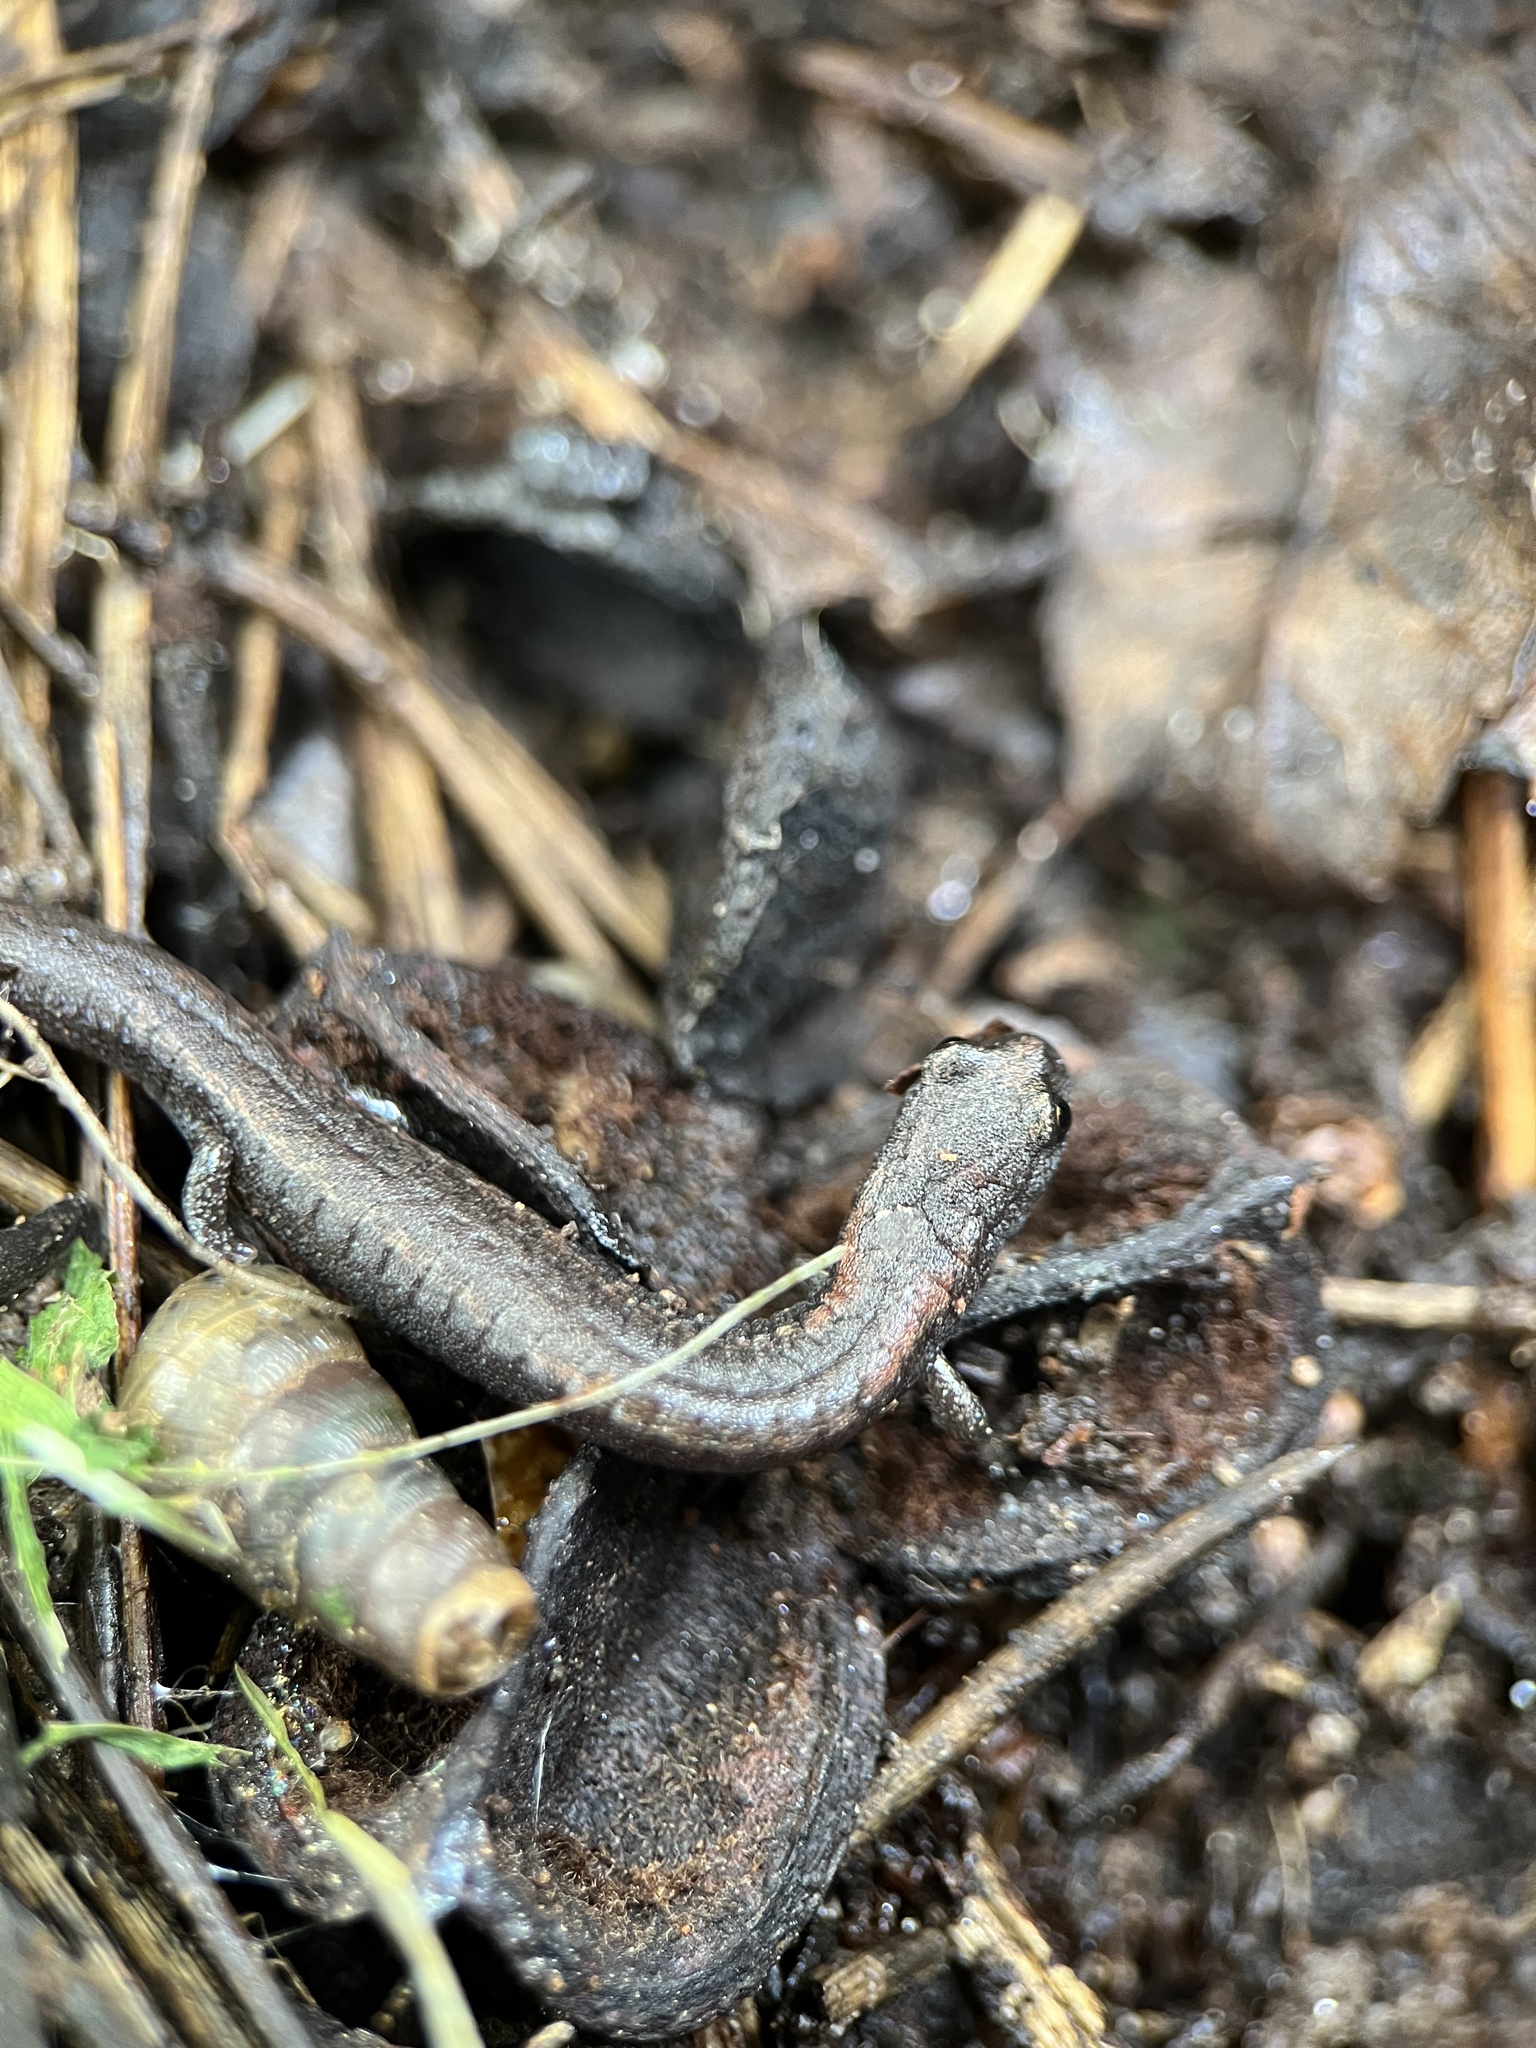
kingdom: Animalia
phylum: Chordata
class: Amphibia
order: Caudata
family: Plethodontidae
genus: Batrachoseps
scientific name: Batrachoseps major
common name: Garden slender salamander
